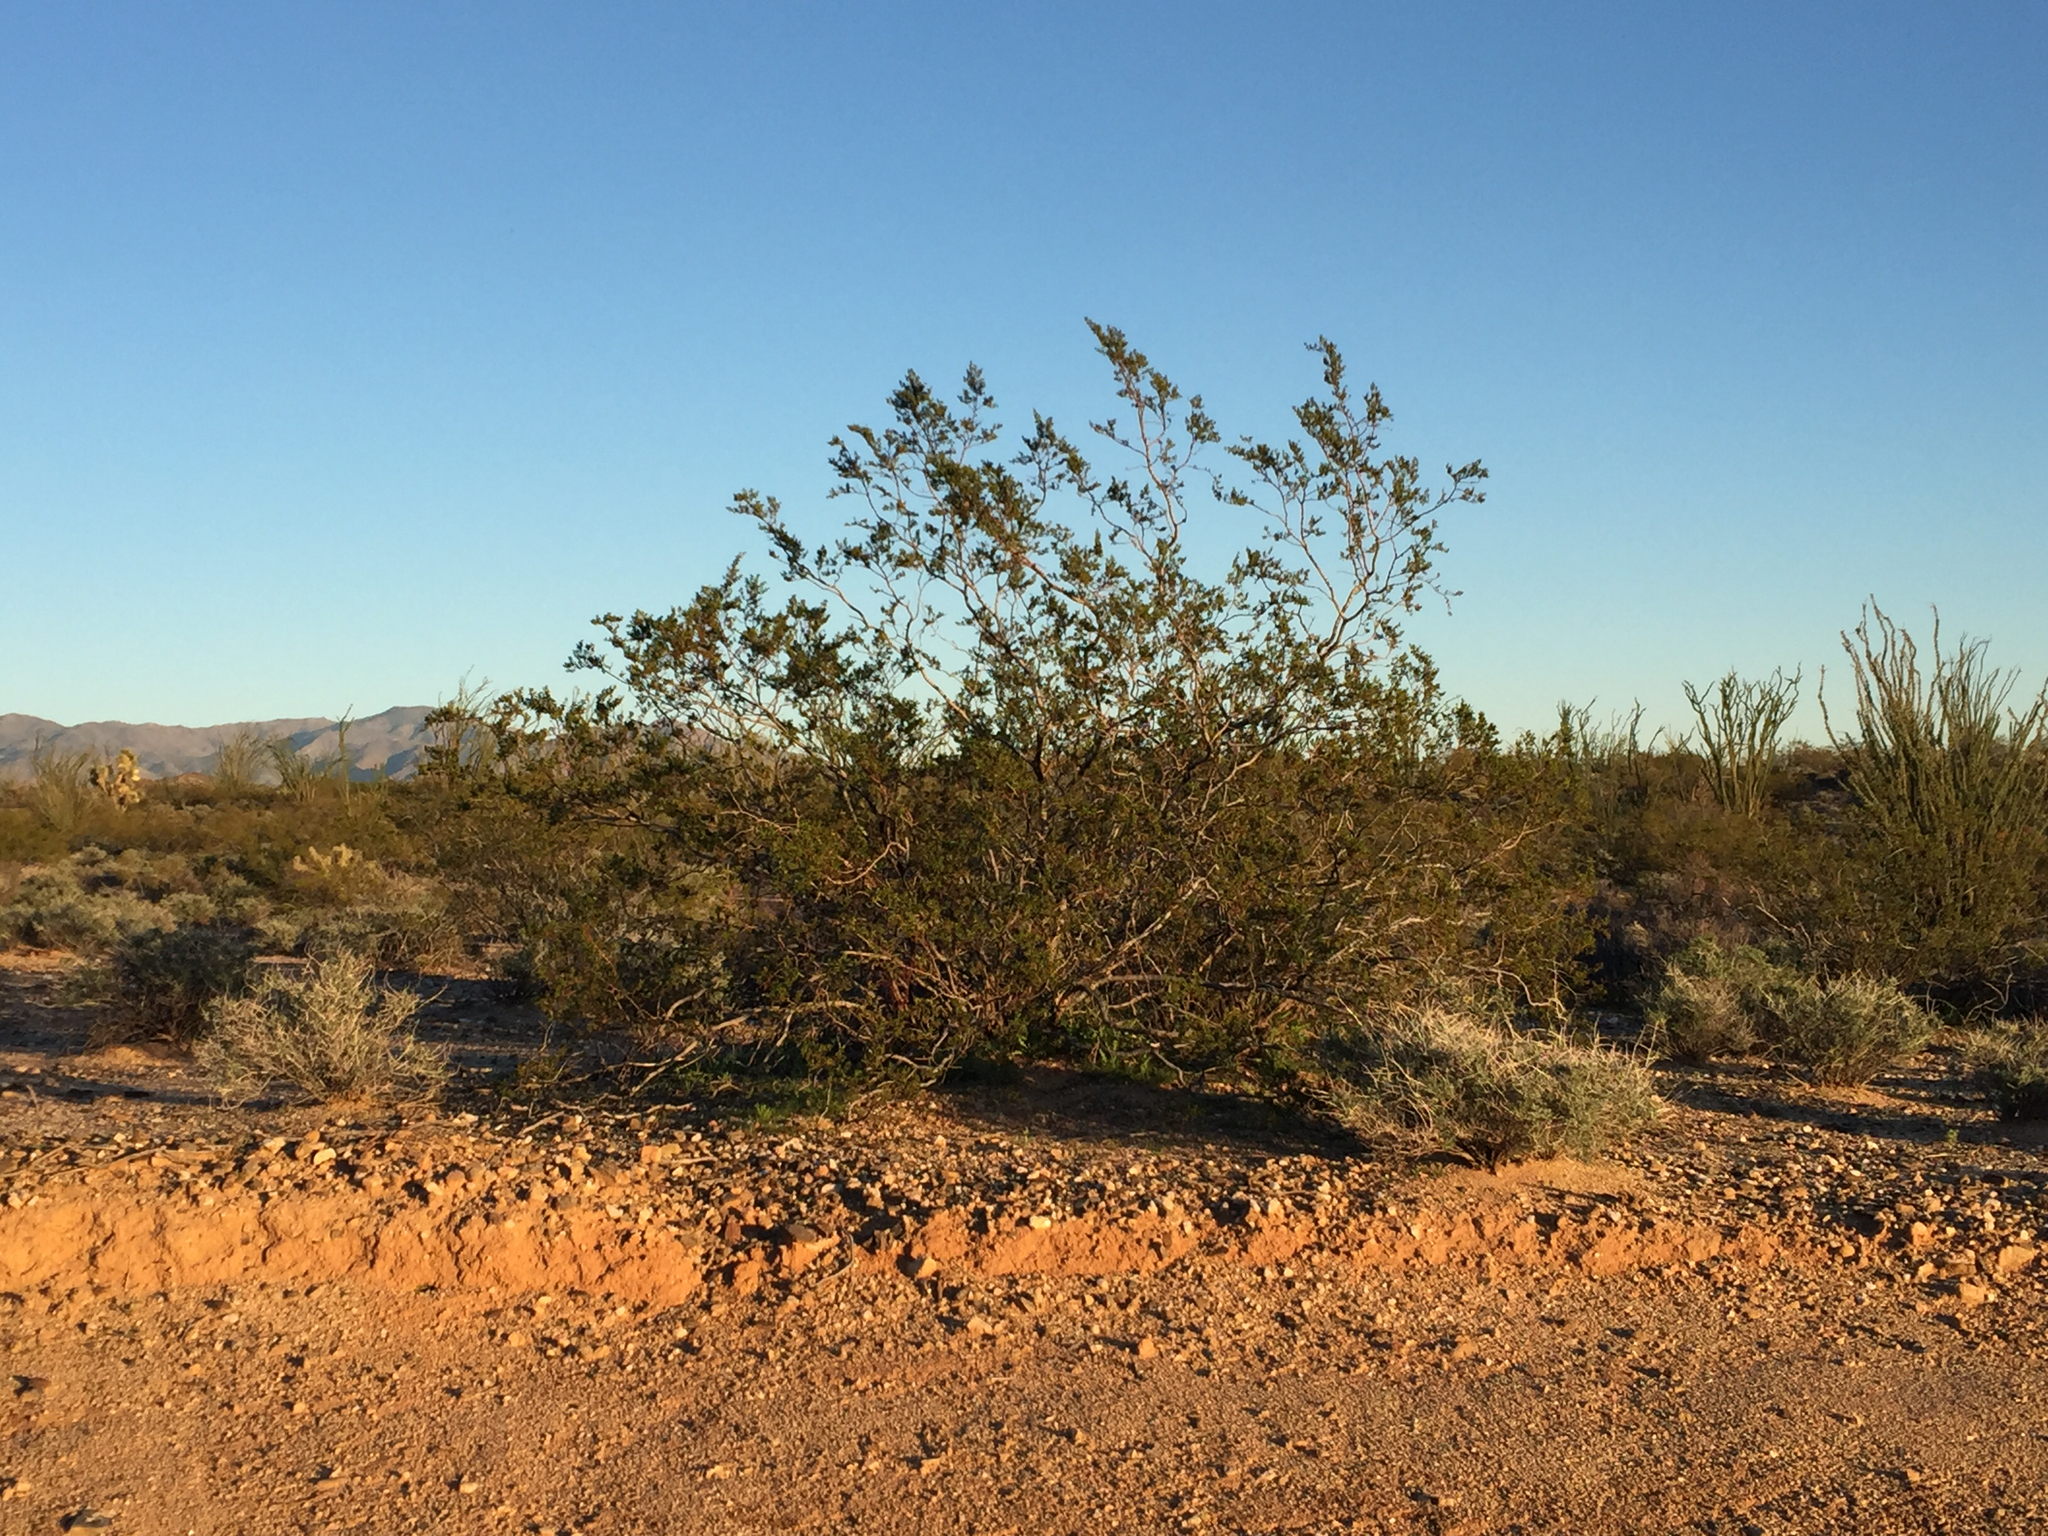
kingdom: Plantae
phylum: Tracheophyta
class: Magnoliopsida
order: Zygophyllales
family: Zygophyllaceae
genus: Larrea
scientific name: Larrea tridentata
